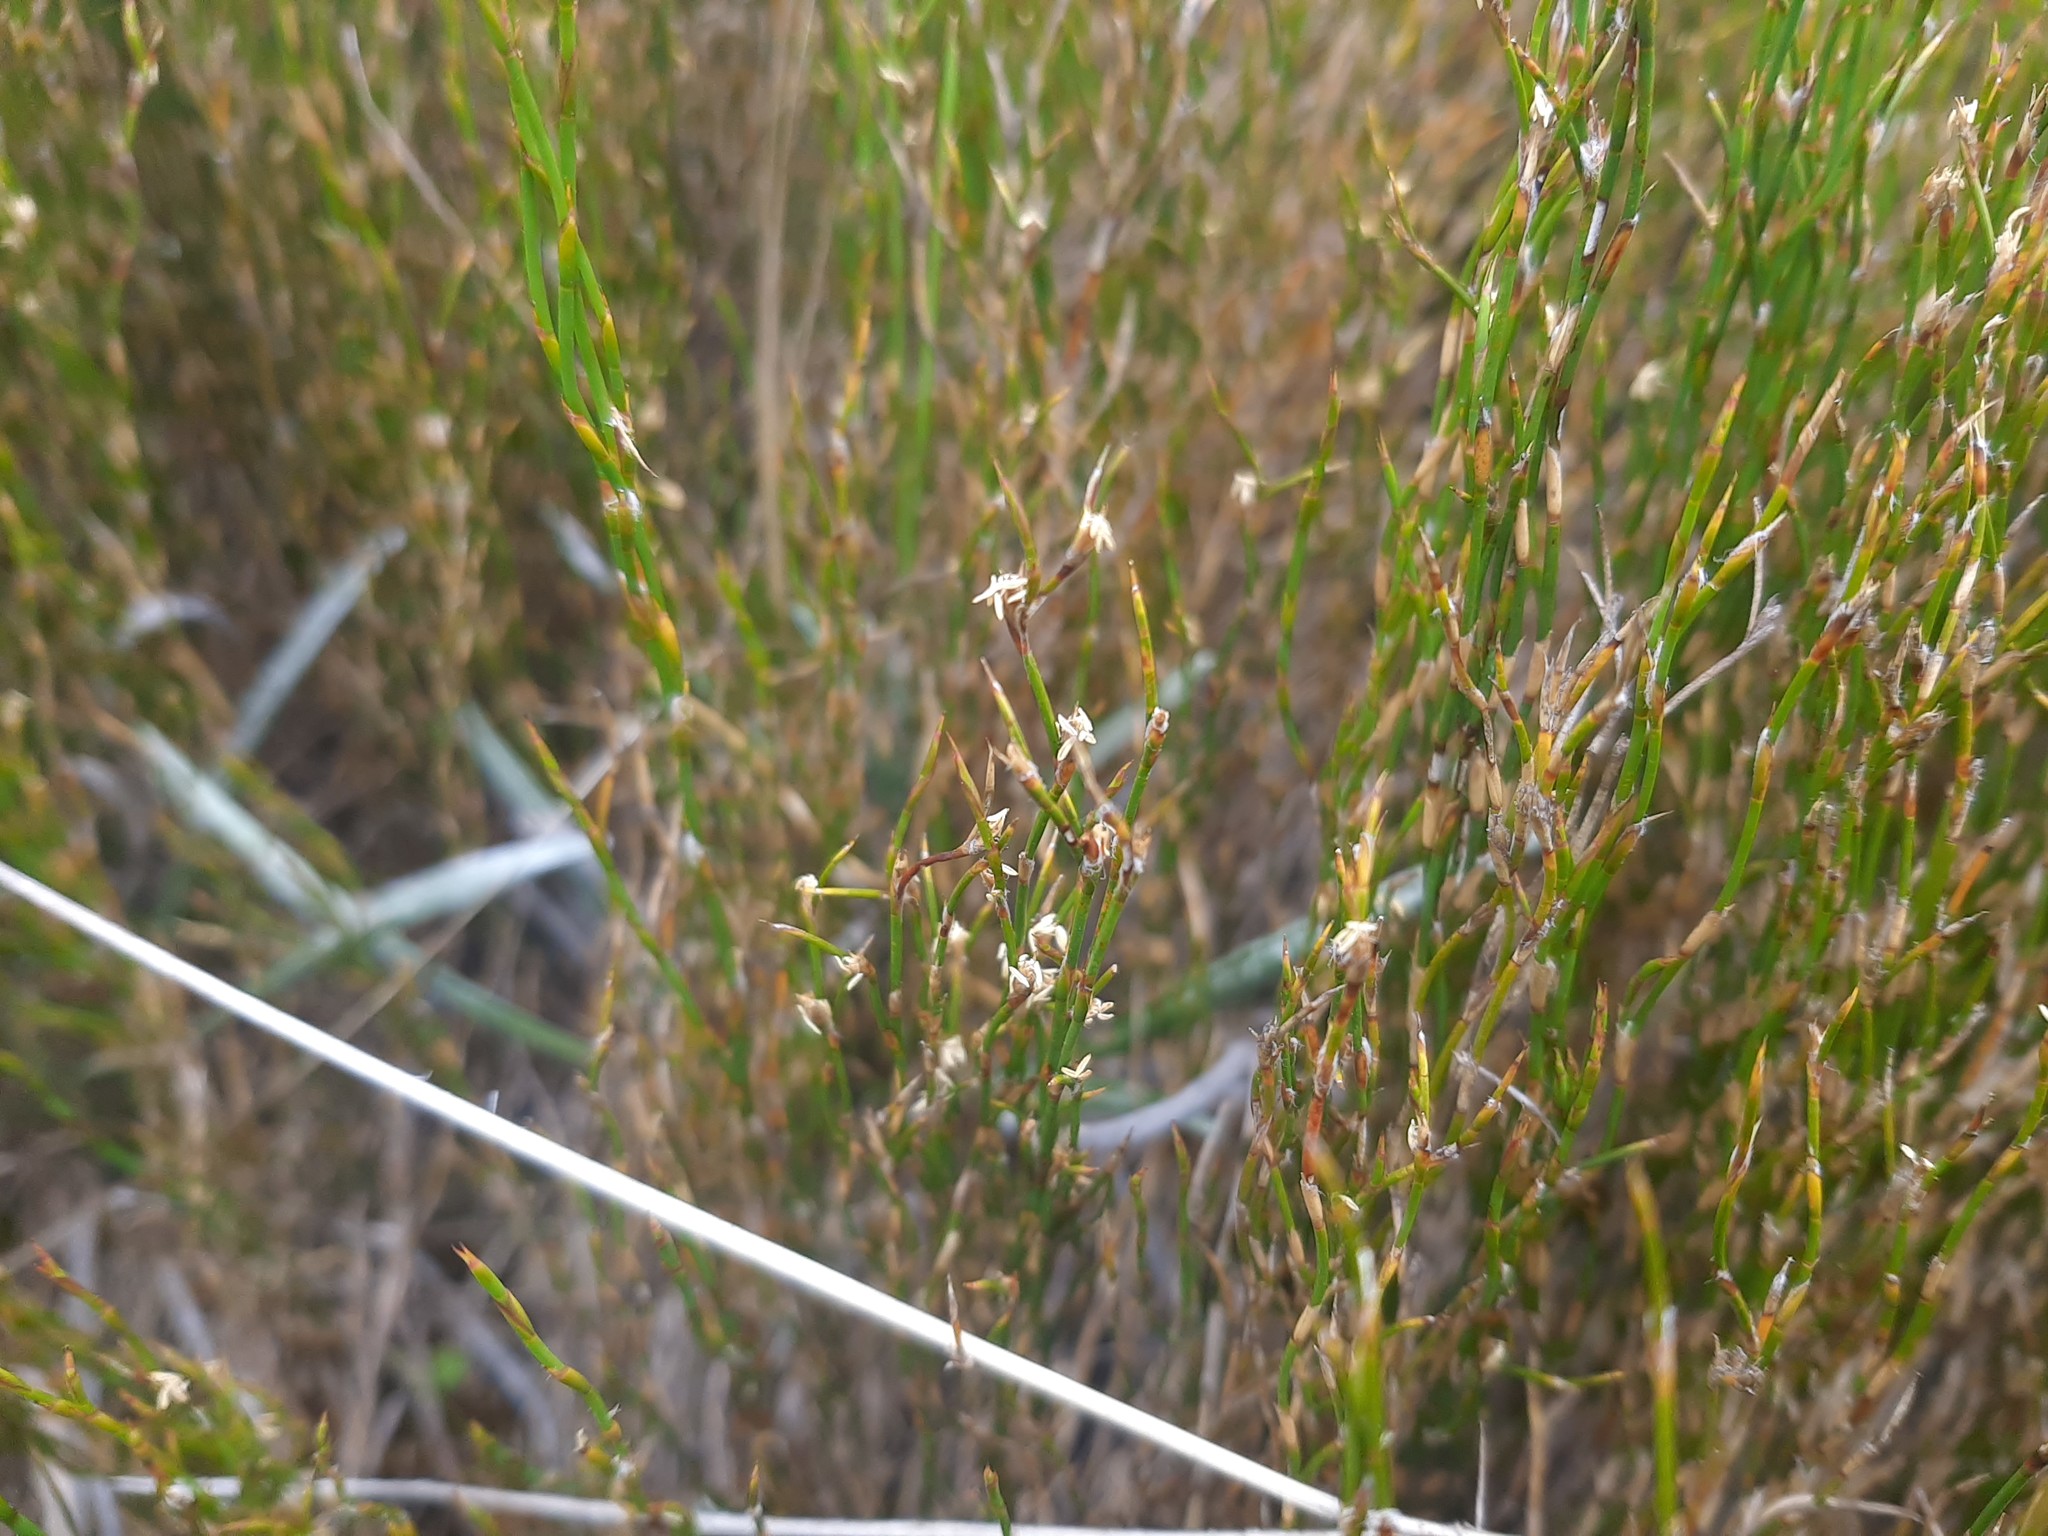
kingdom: Plantae
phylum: Tracheophyta
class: Liliopsida
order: Poales
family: Restionaceae
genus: Empodisma
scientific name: Empodisma minus
